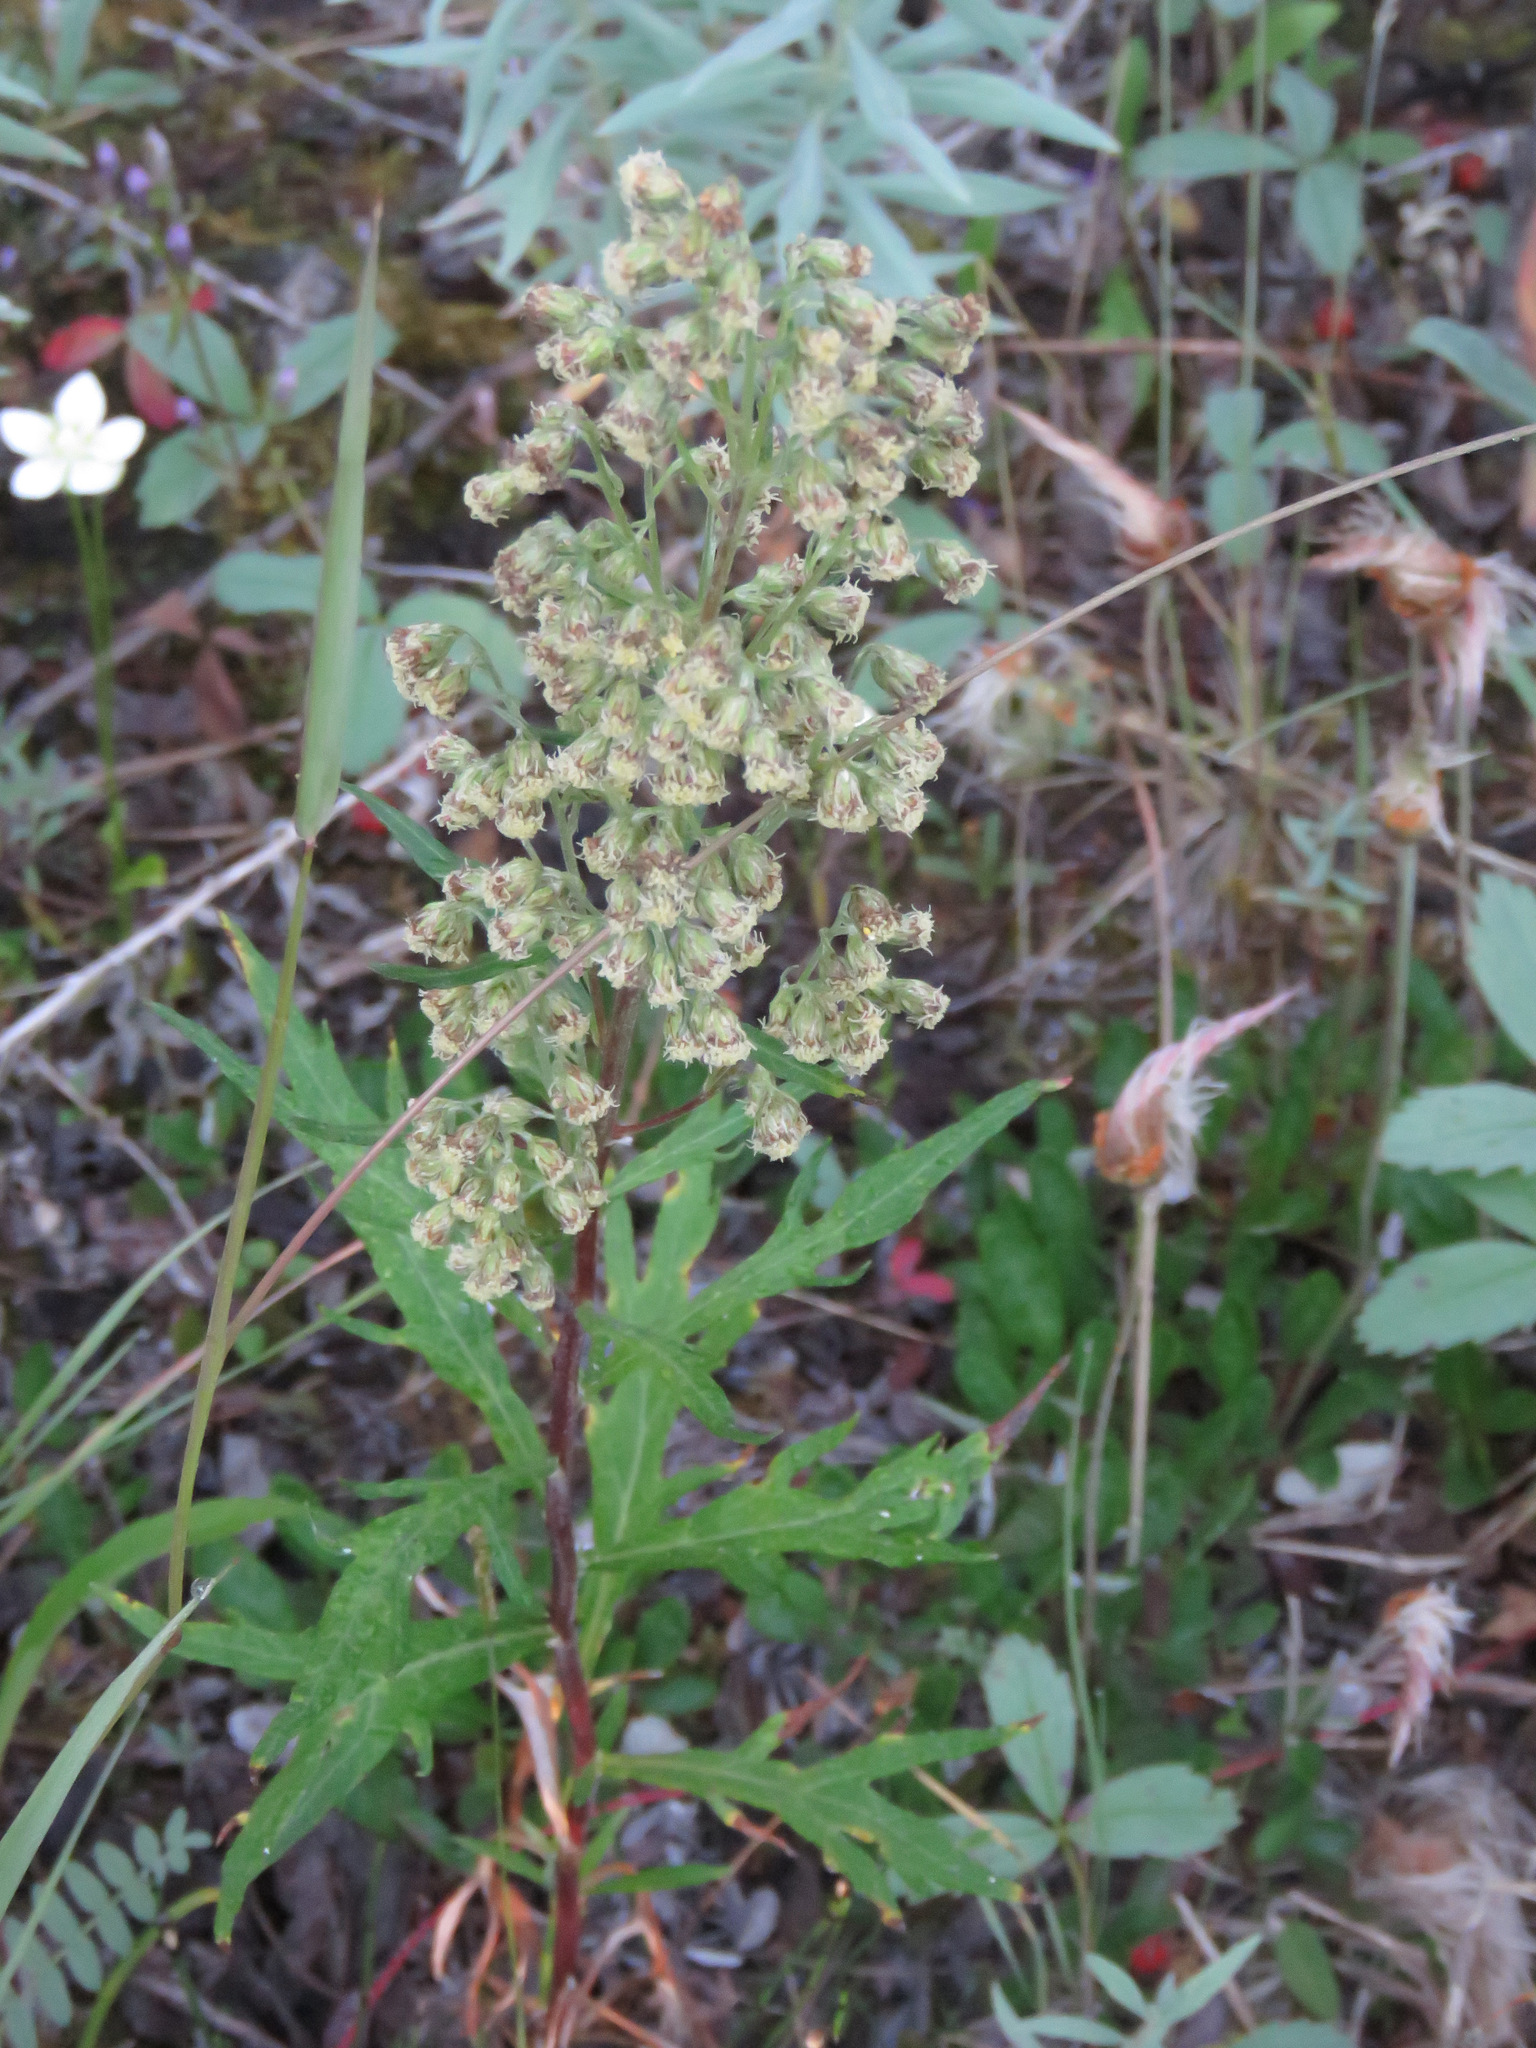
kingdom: Plantae
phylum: Tracheophyta
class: Magnoliopsida
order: Asterales
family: Asteraceae
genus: Artemisia
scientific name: Artemisia tilesii
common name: Aleutian mugwort
